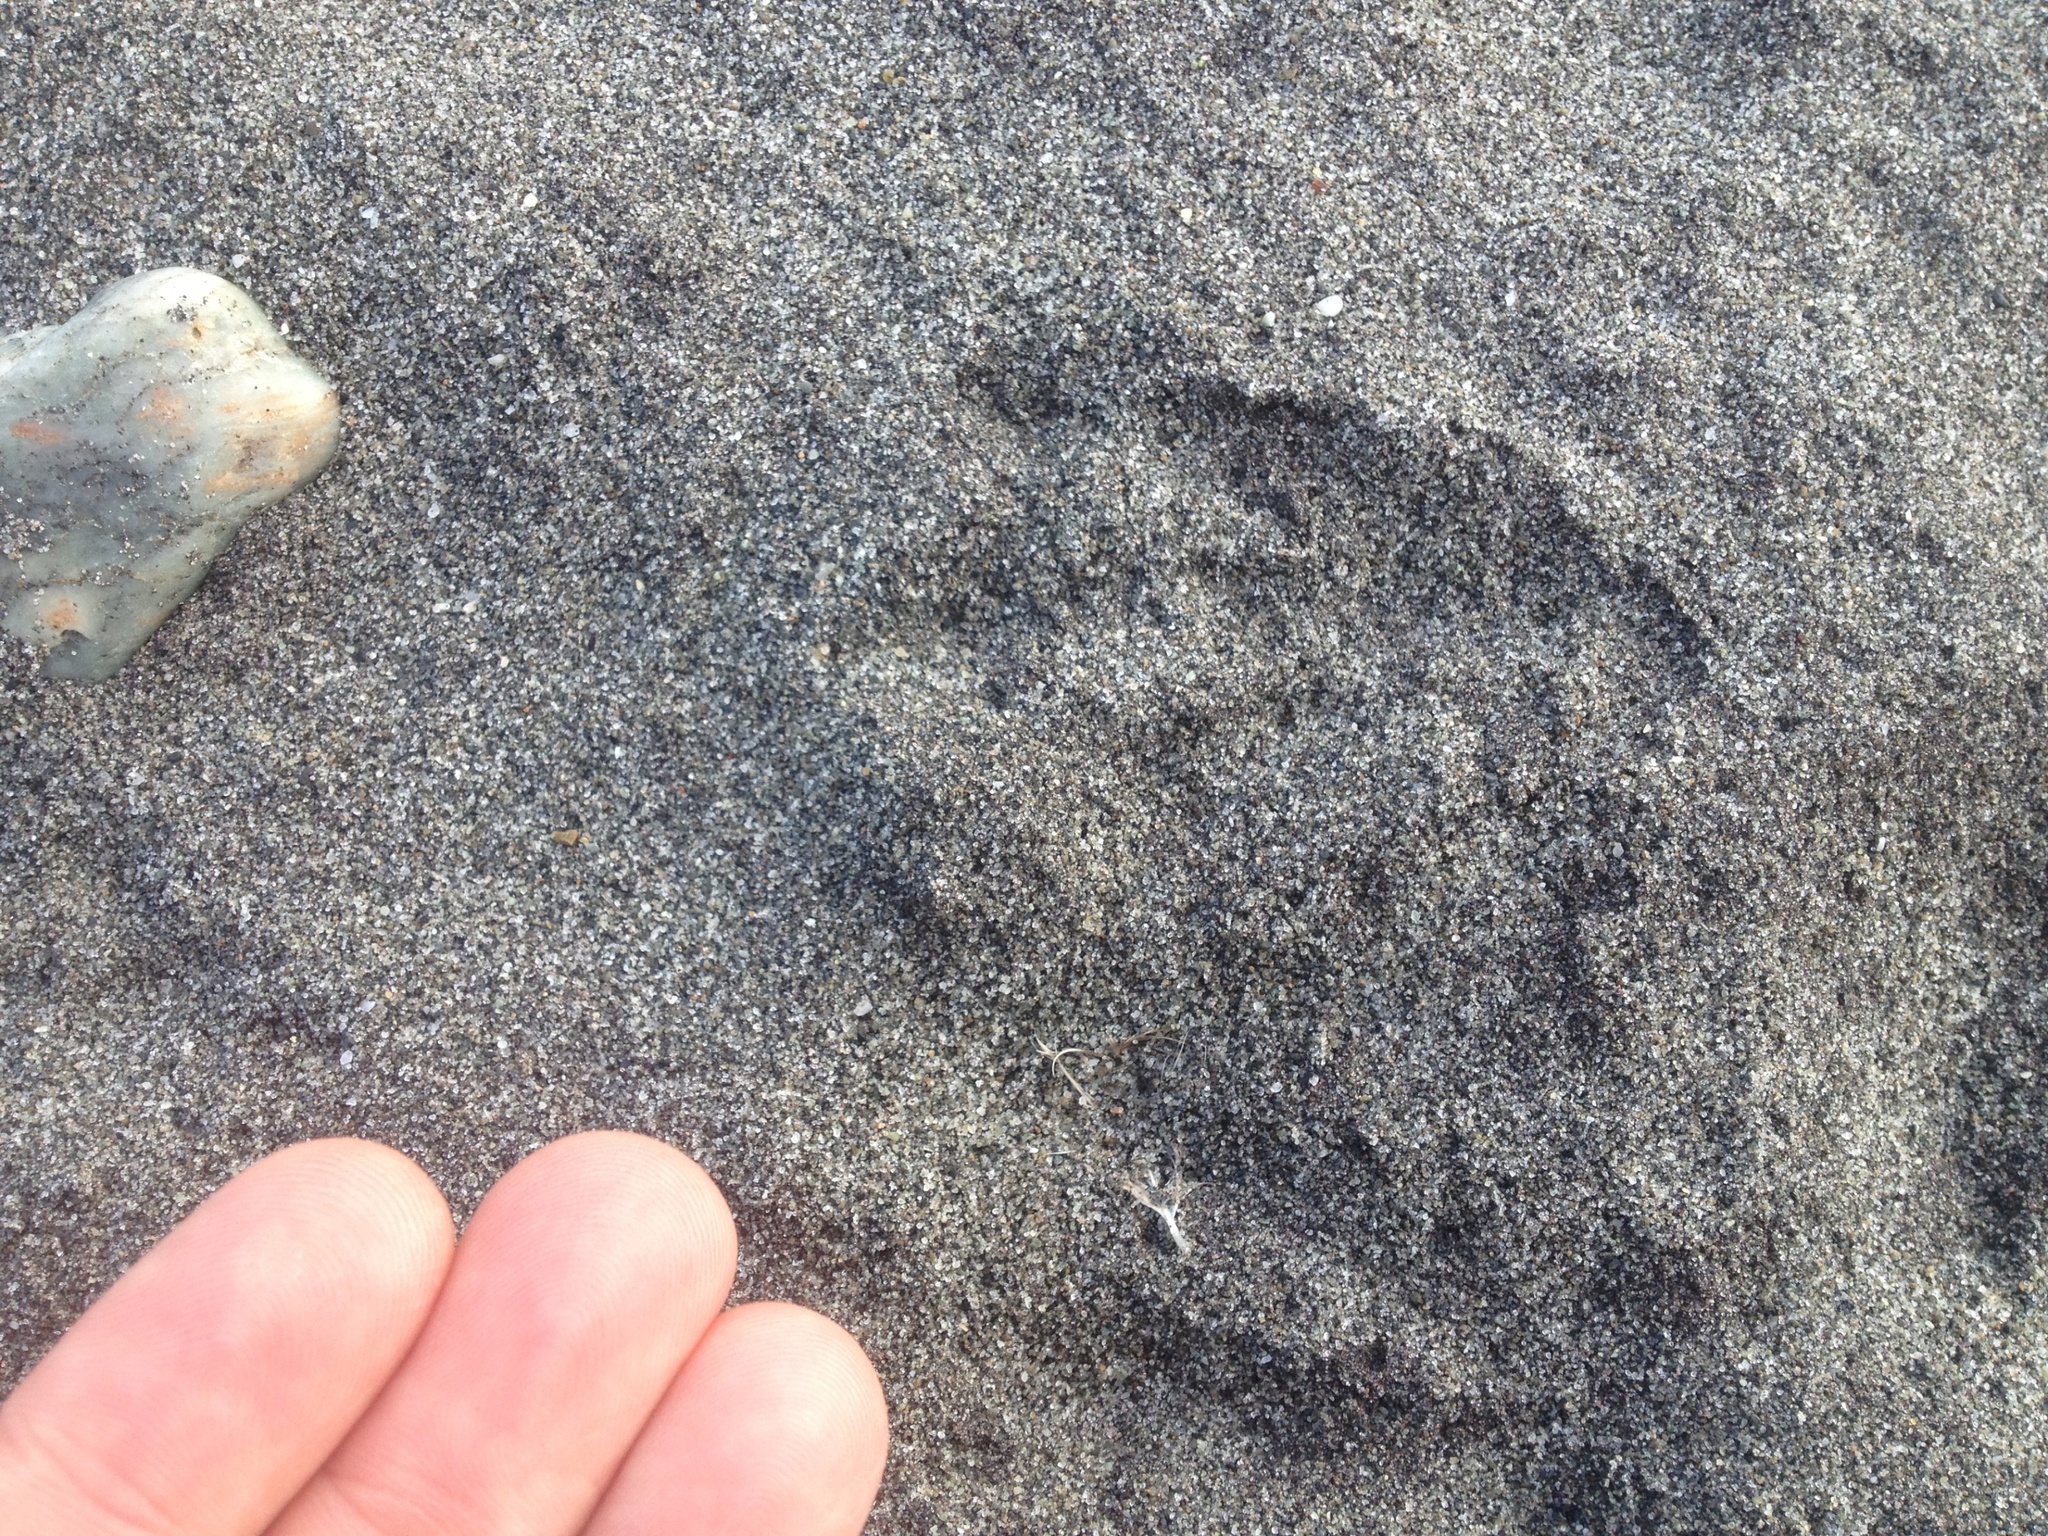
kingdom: Animalia
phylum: Chordata
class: Aves
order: Sphenisciformes
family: Spheniscidae
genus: Eudyptula
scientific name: Eudyptula minor
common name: Little penguin
